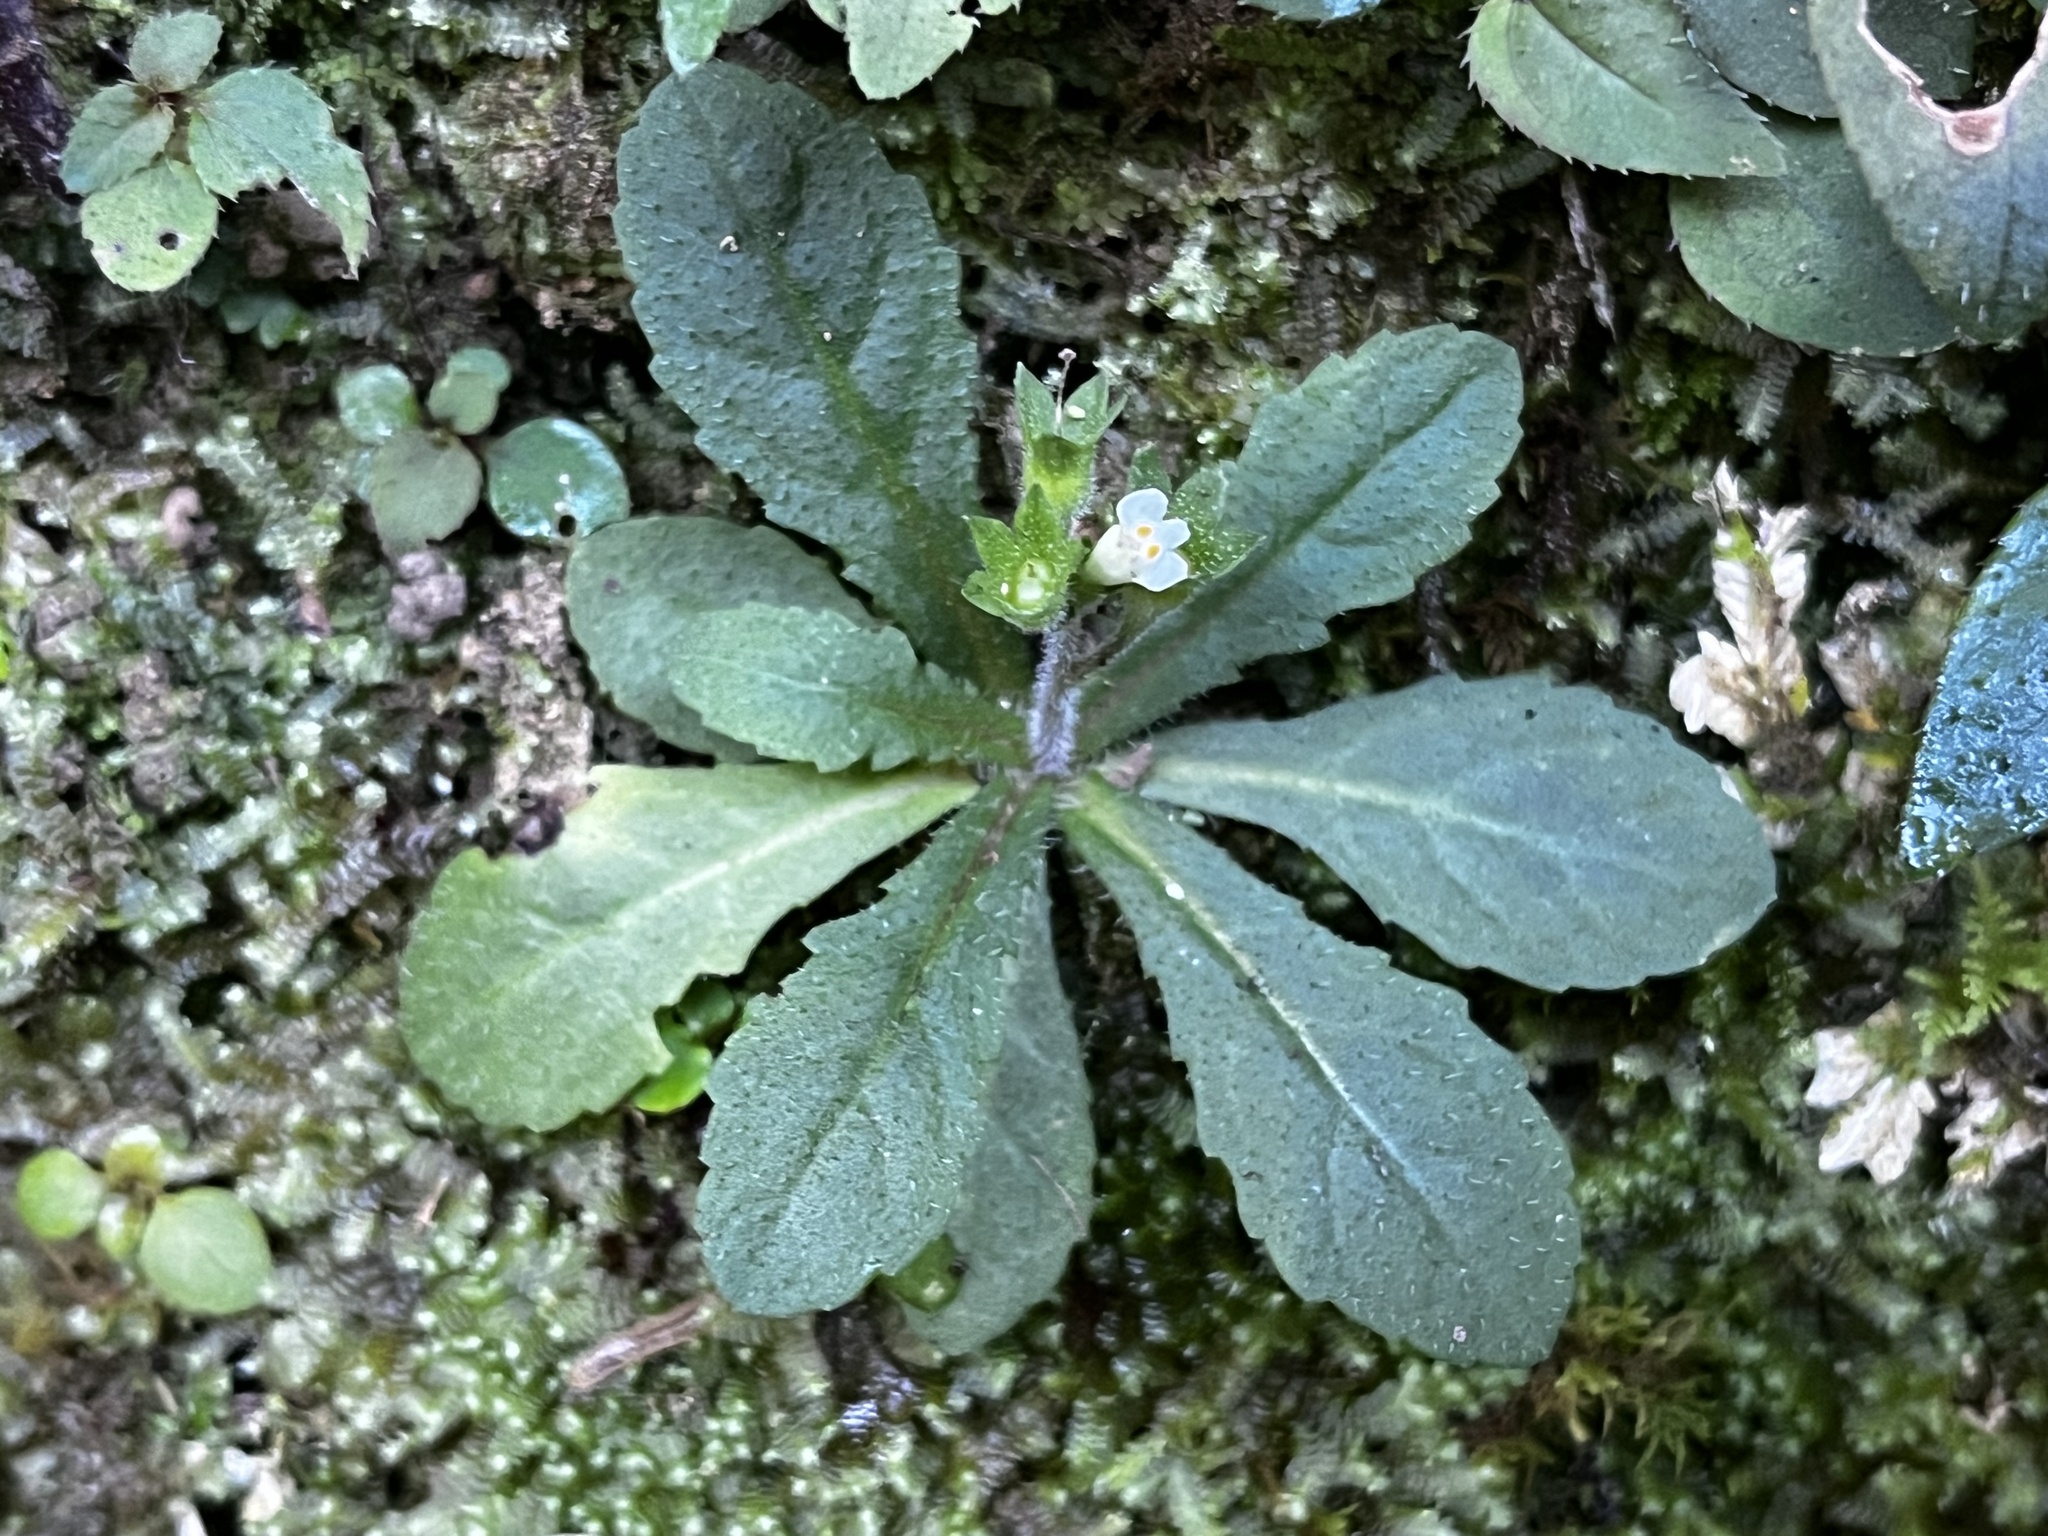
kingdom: Plantae
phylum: Tracheophyta
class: Magnoliopsida
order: Lamiales
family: Mazaceae
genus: Mazus
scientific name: Mazus goodeniifolius
